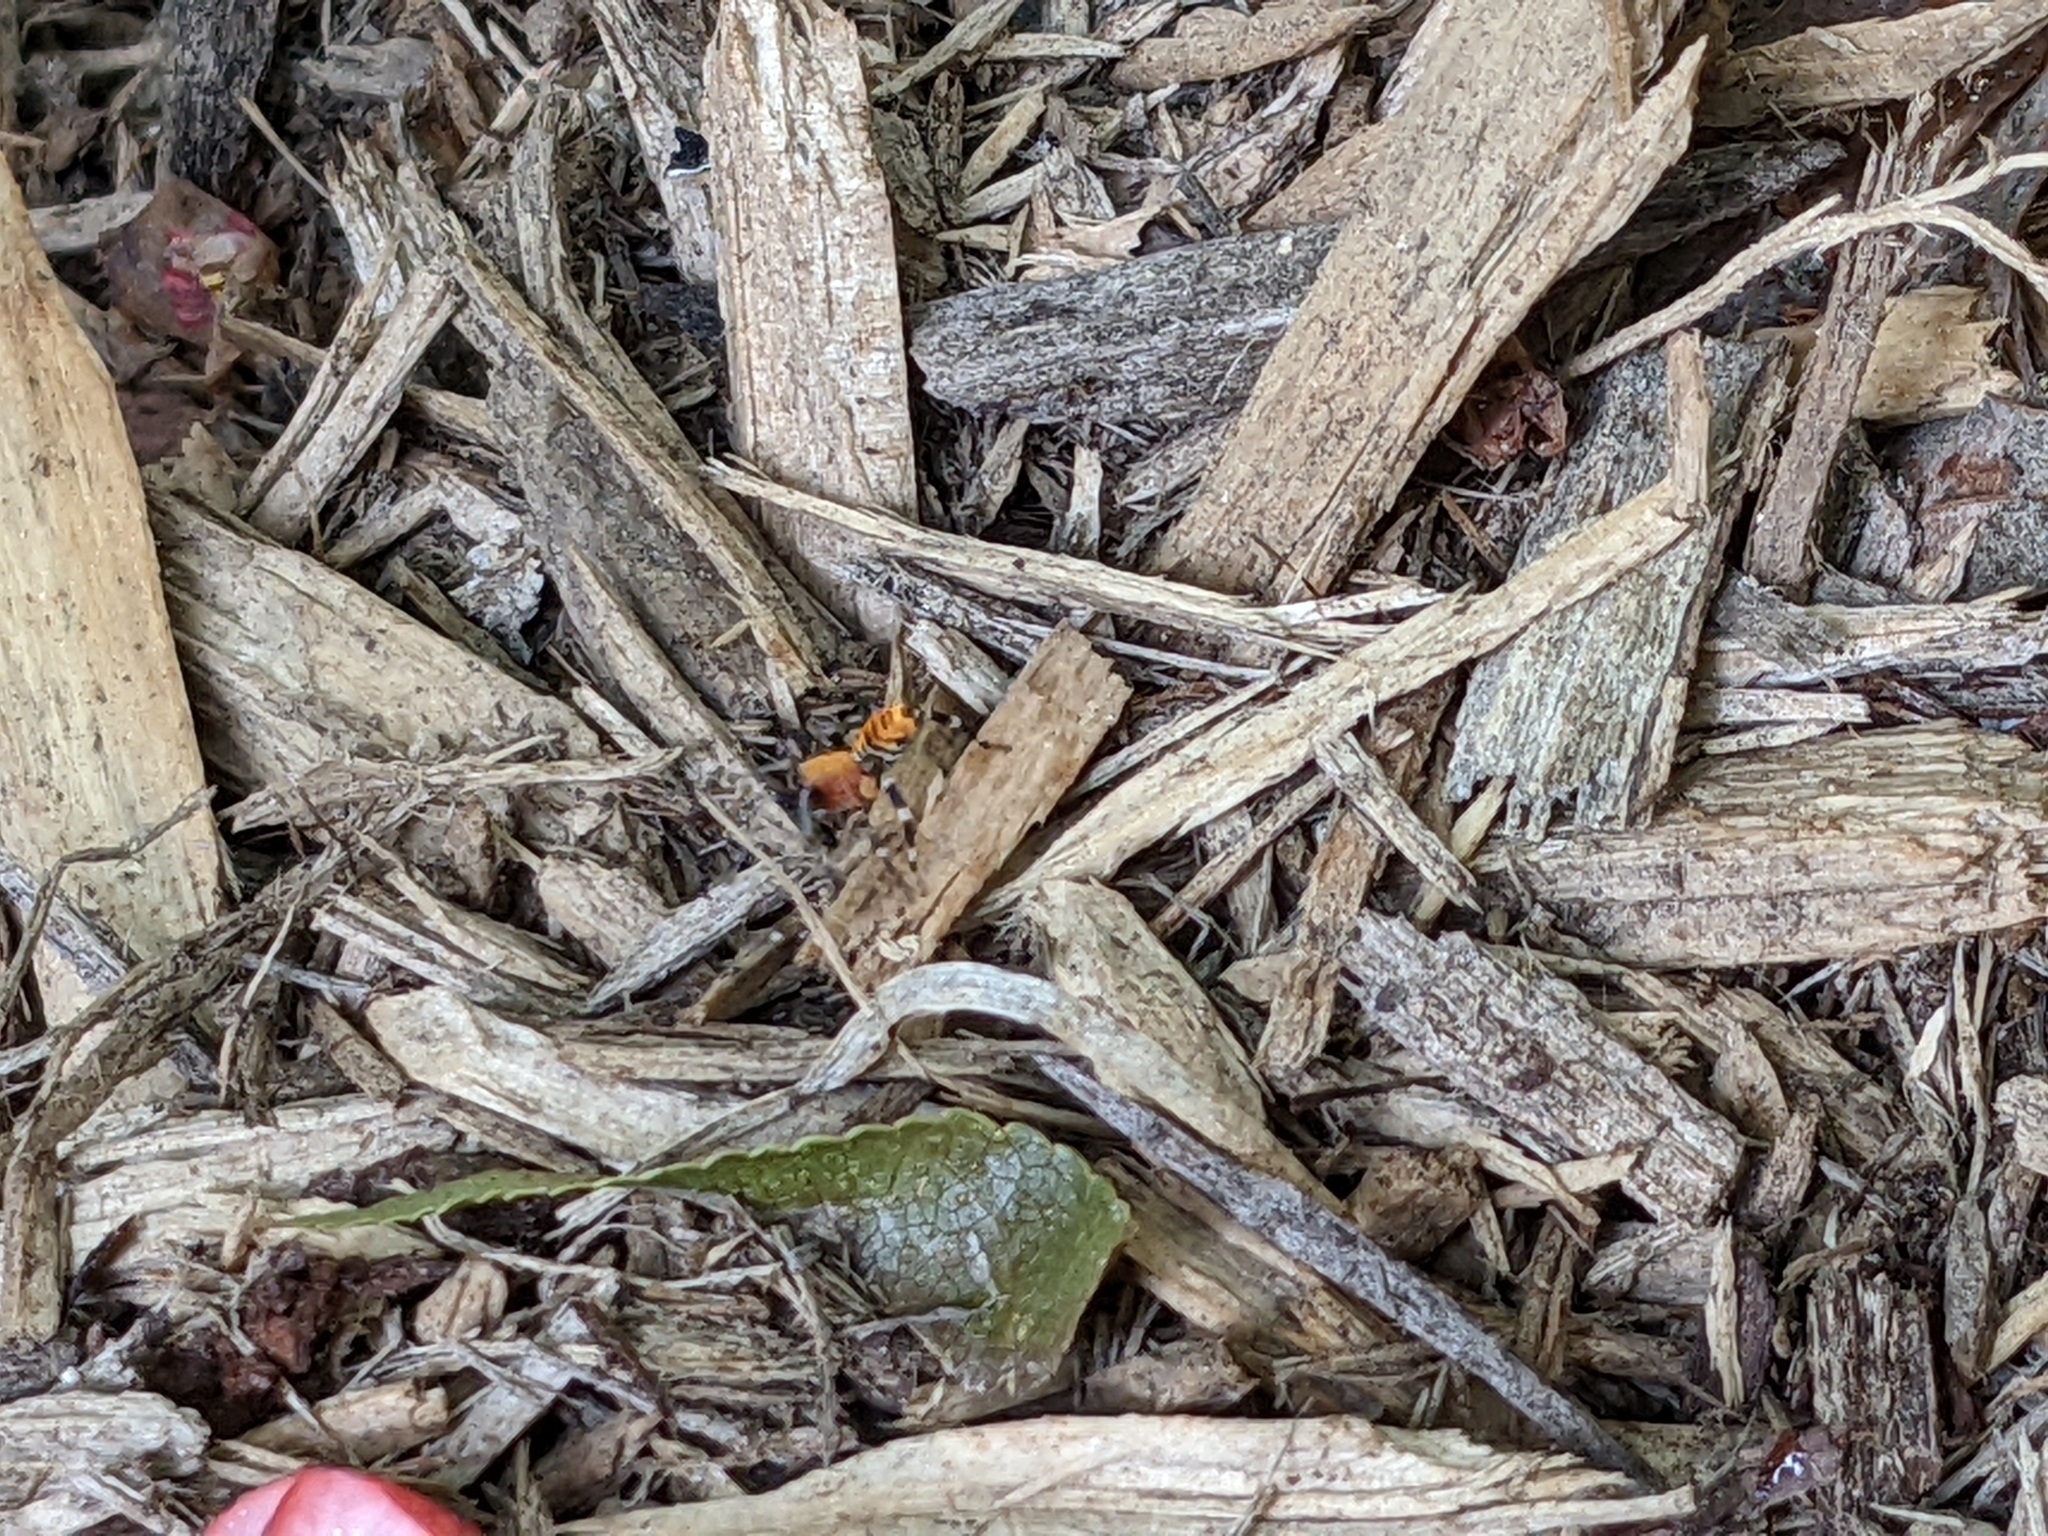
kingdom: Animalia
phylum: Arthropoda
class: Arachnida
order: Araneae
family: Corinnidae
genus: Castianeira
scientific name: Castianeira amoena
